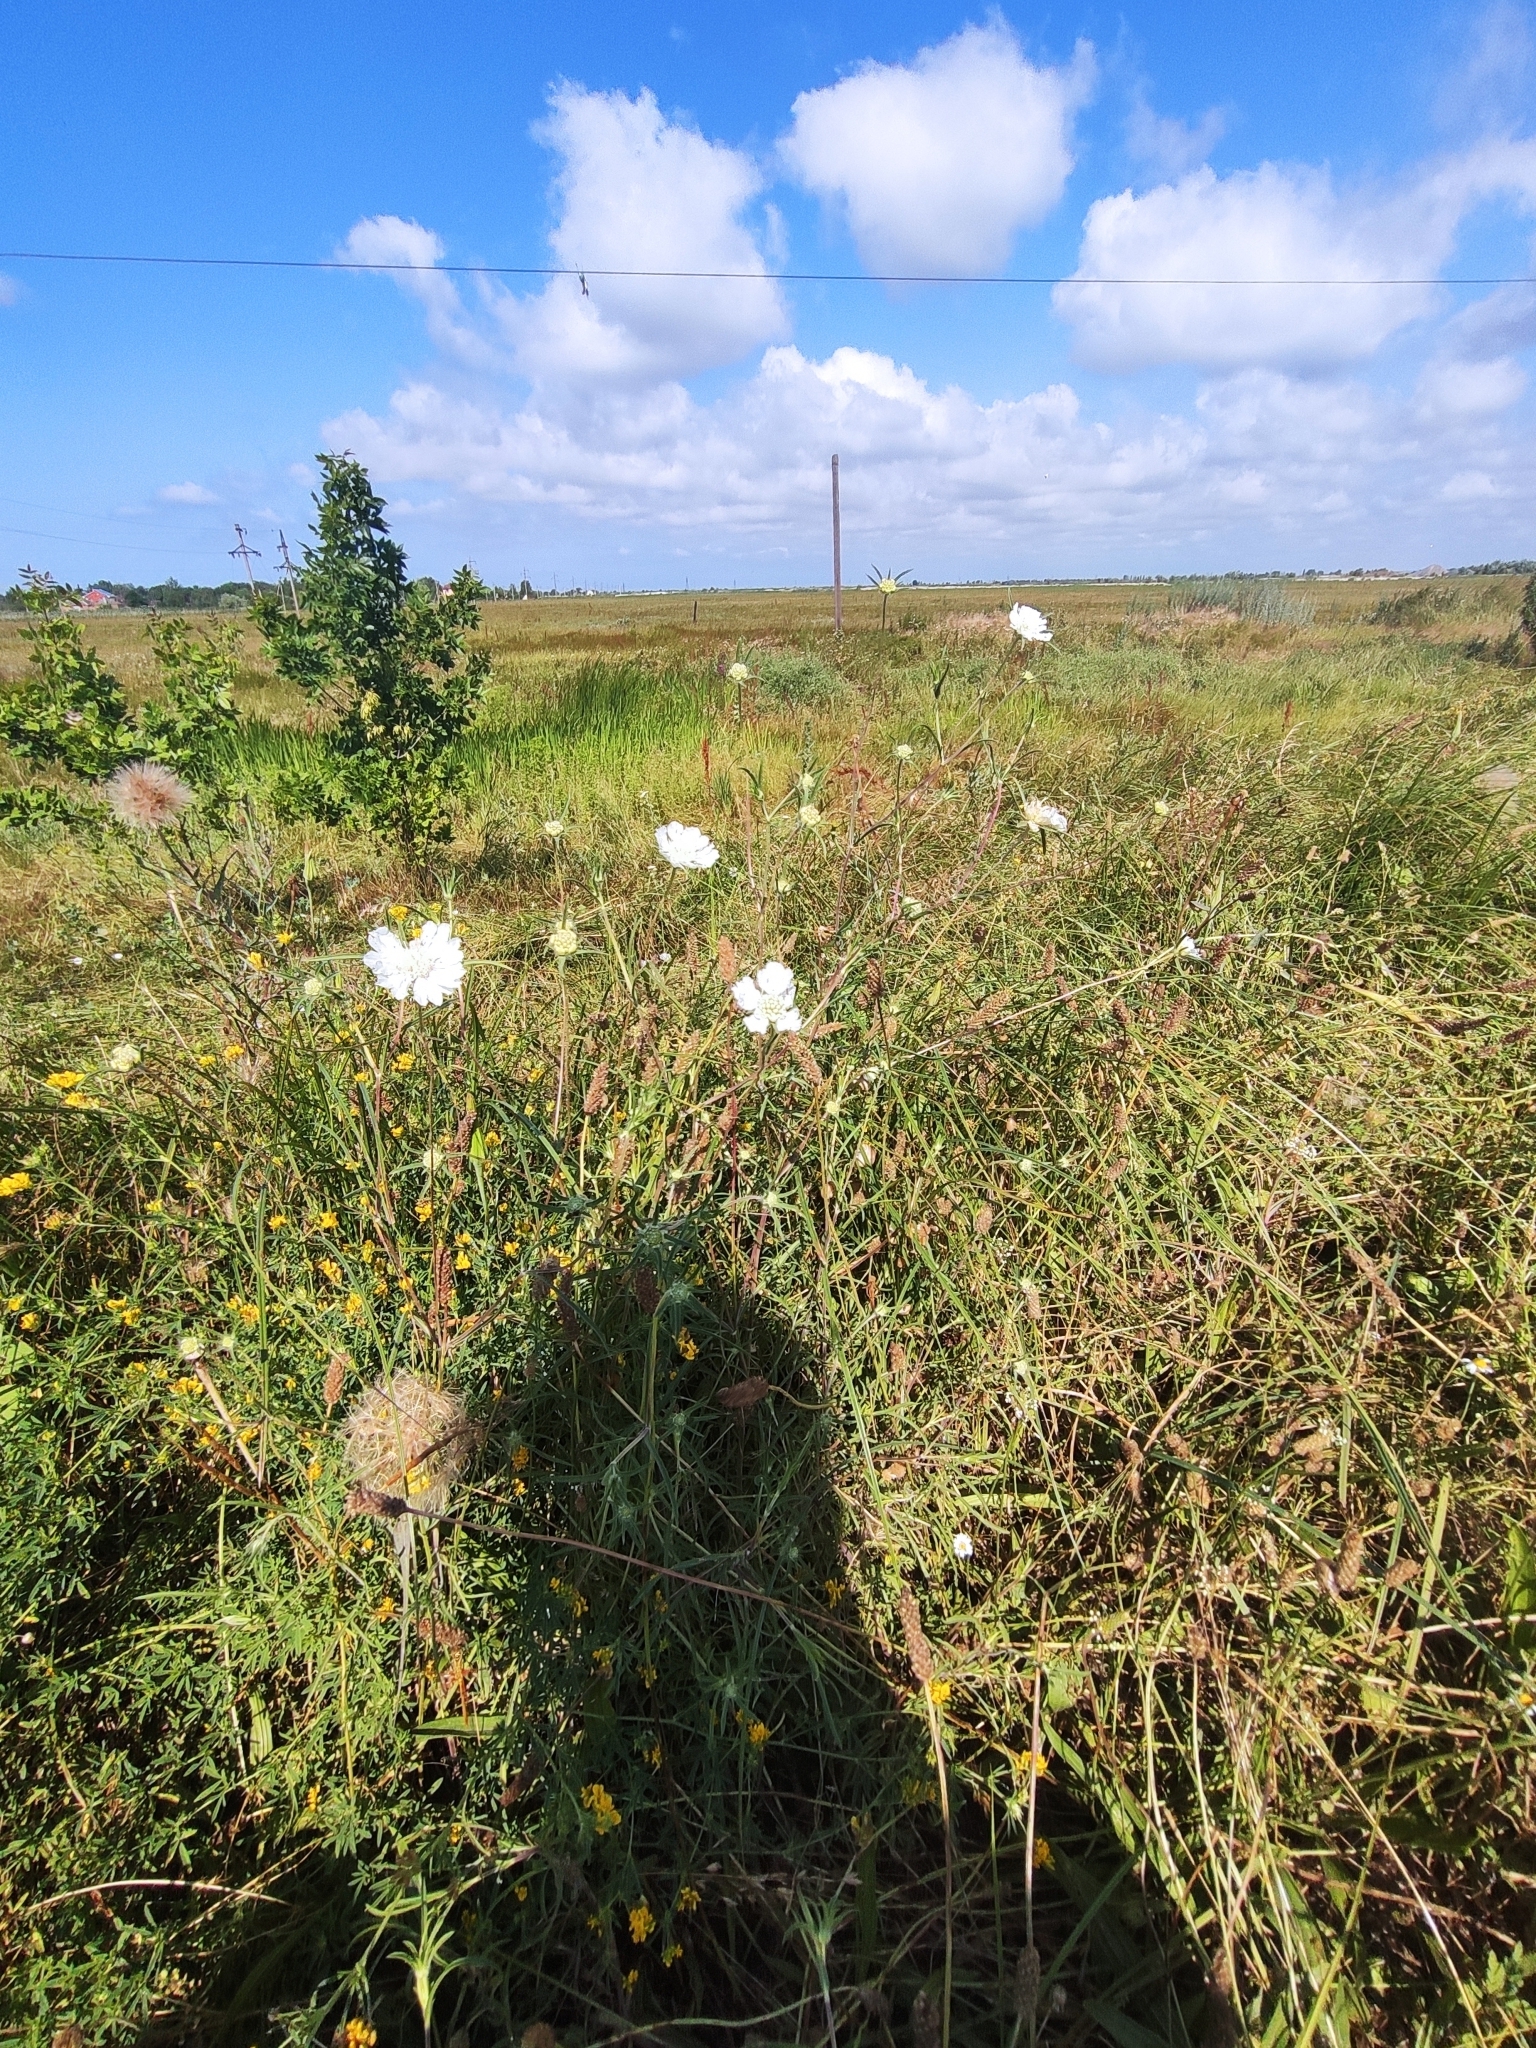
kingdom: Plantae
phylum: Tracheophyta
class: Magnoliopsida
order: Dipsacales
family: Caprifoliaceae
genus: Lomelosia
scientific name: Lomelosia argentea
